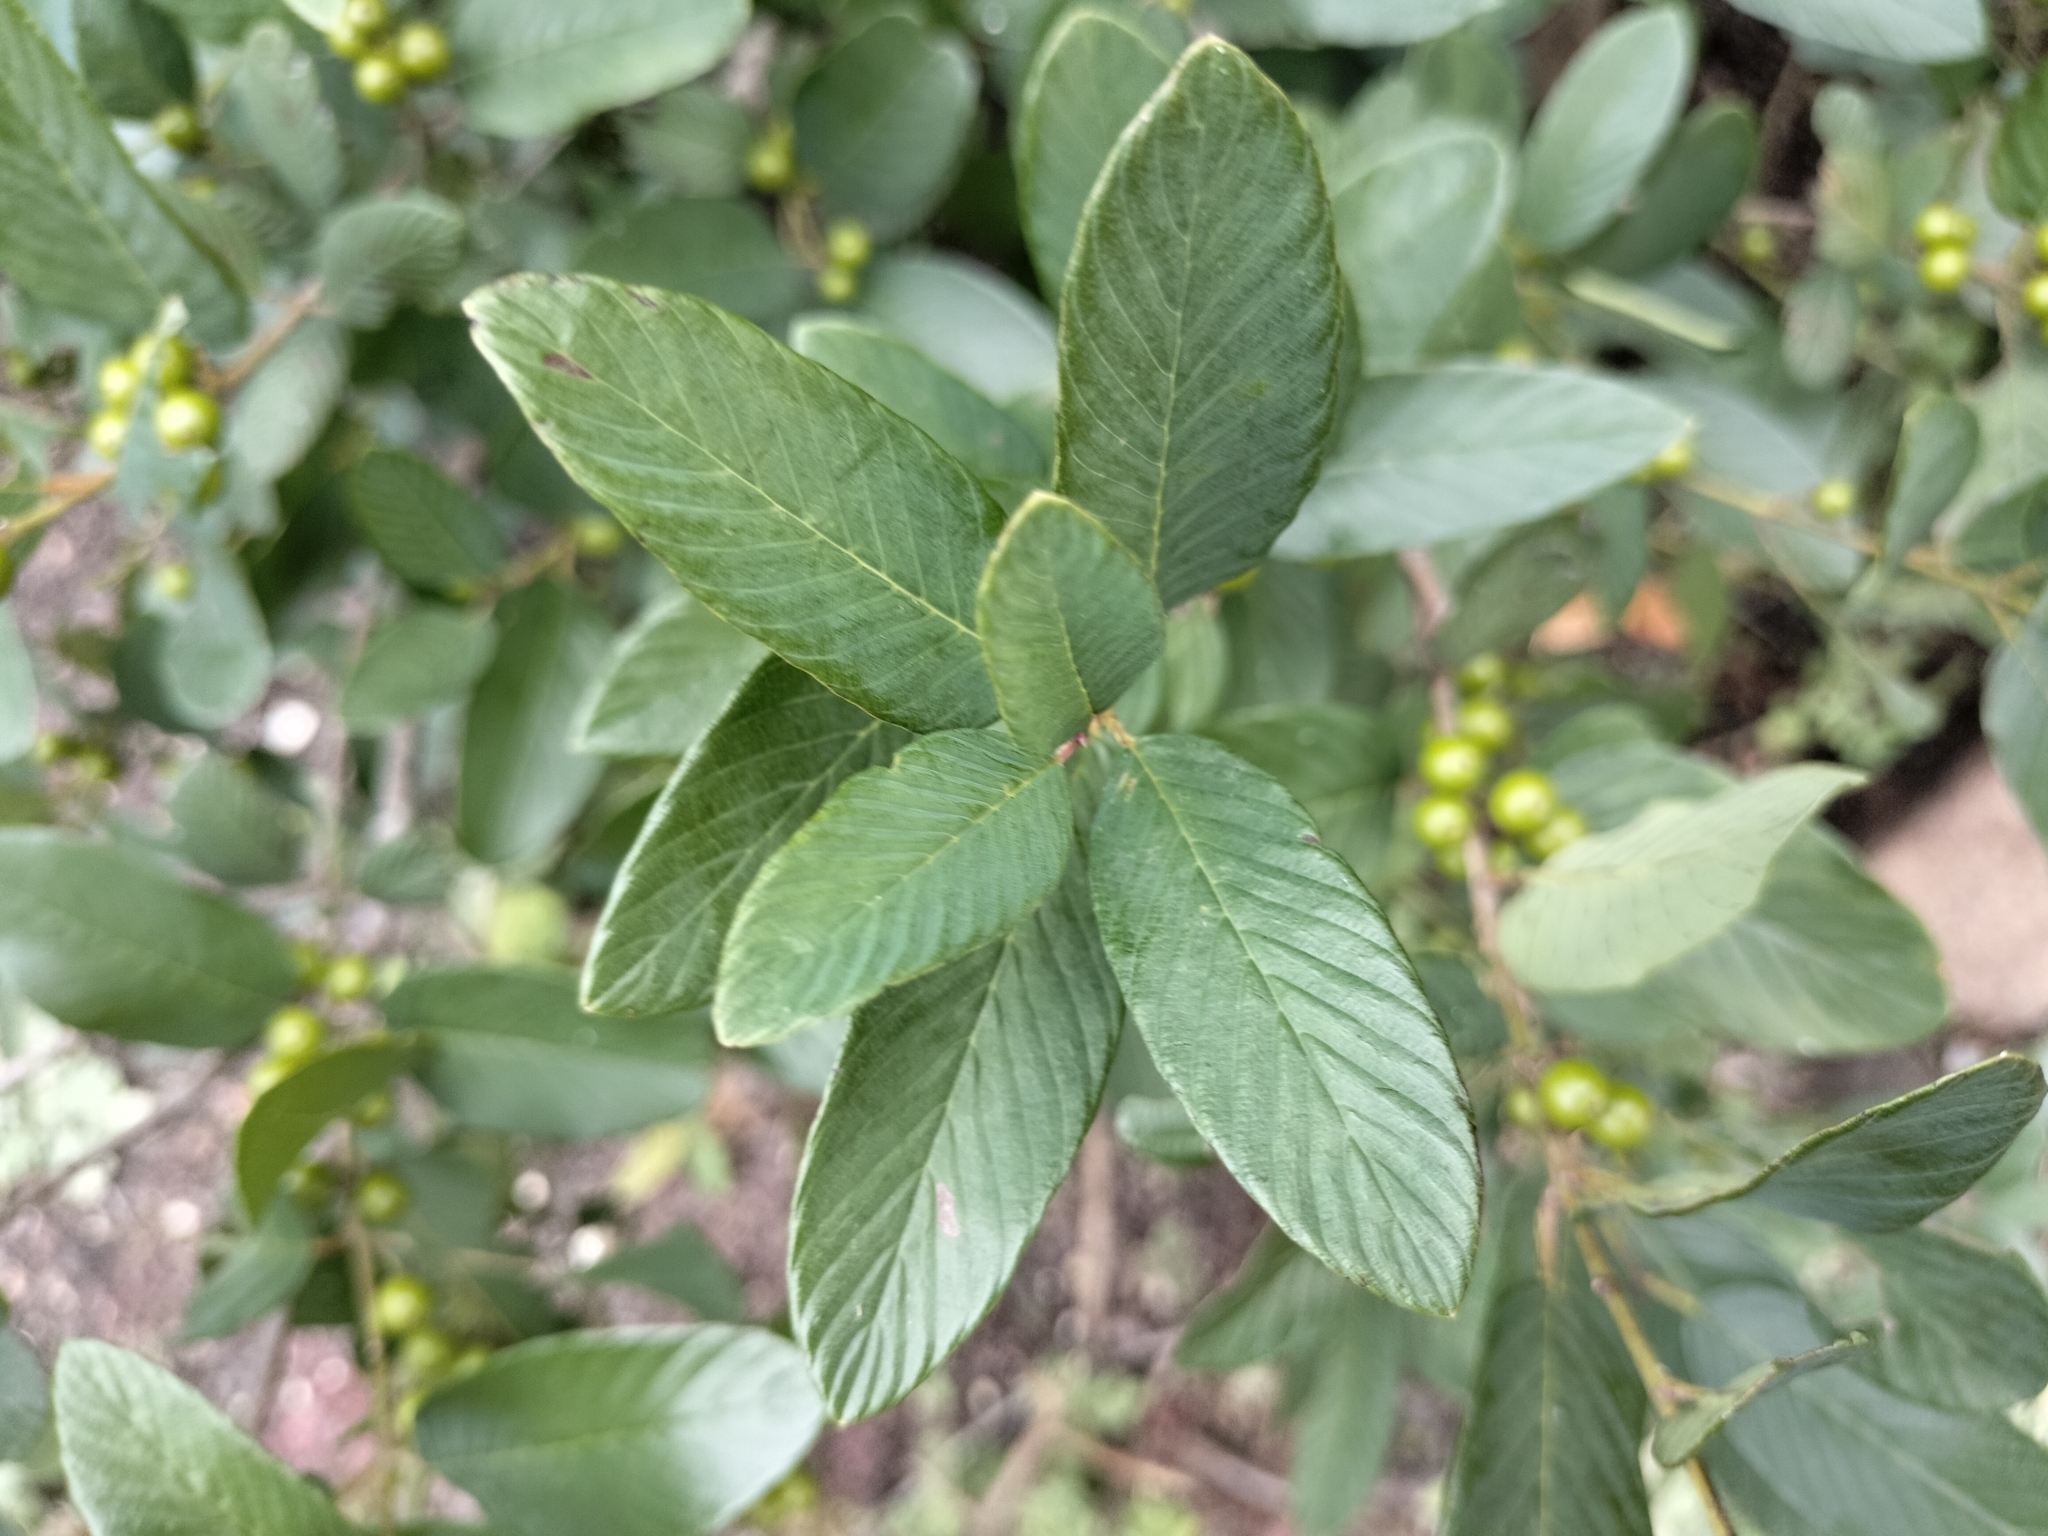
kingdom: Plantae
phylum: Tracheophyta
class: Magnoliopsida
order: Rosales
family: Rhamnaceae
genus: Karwinskia
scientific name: Karwinskia humboldtiana
